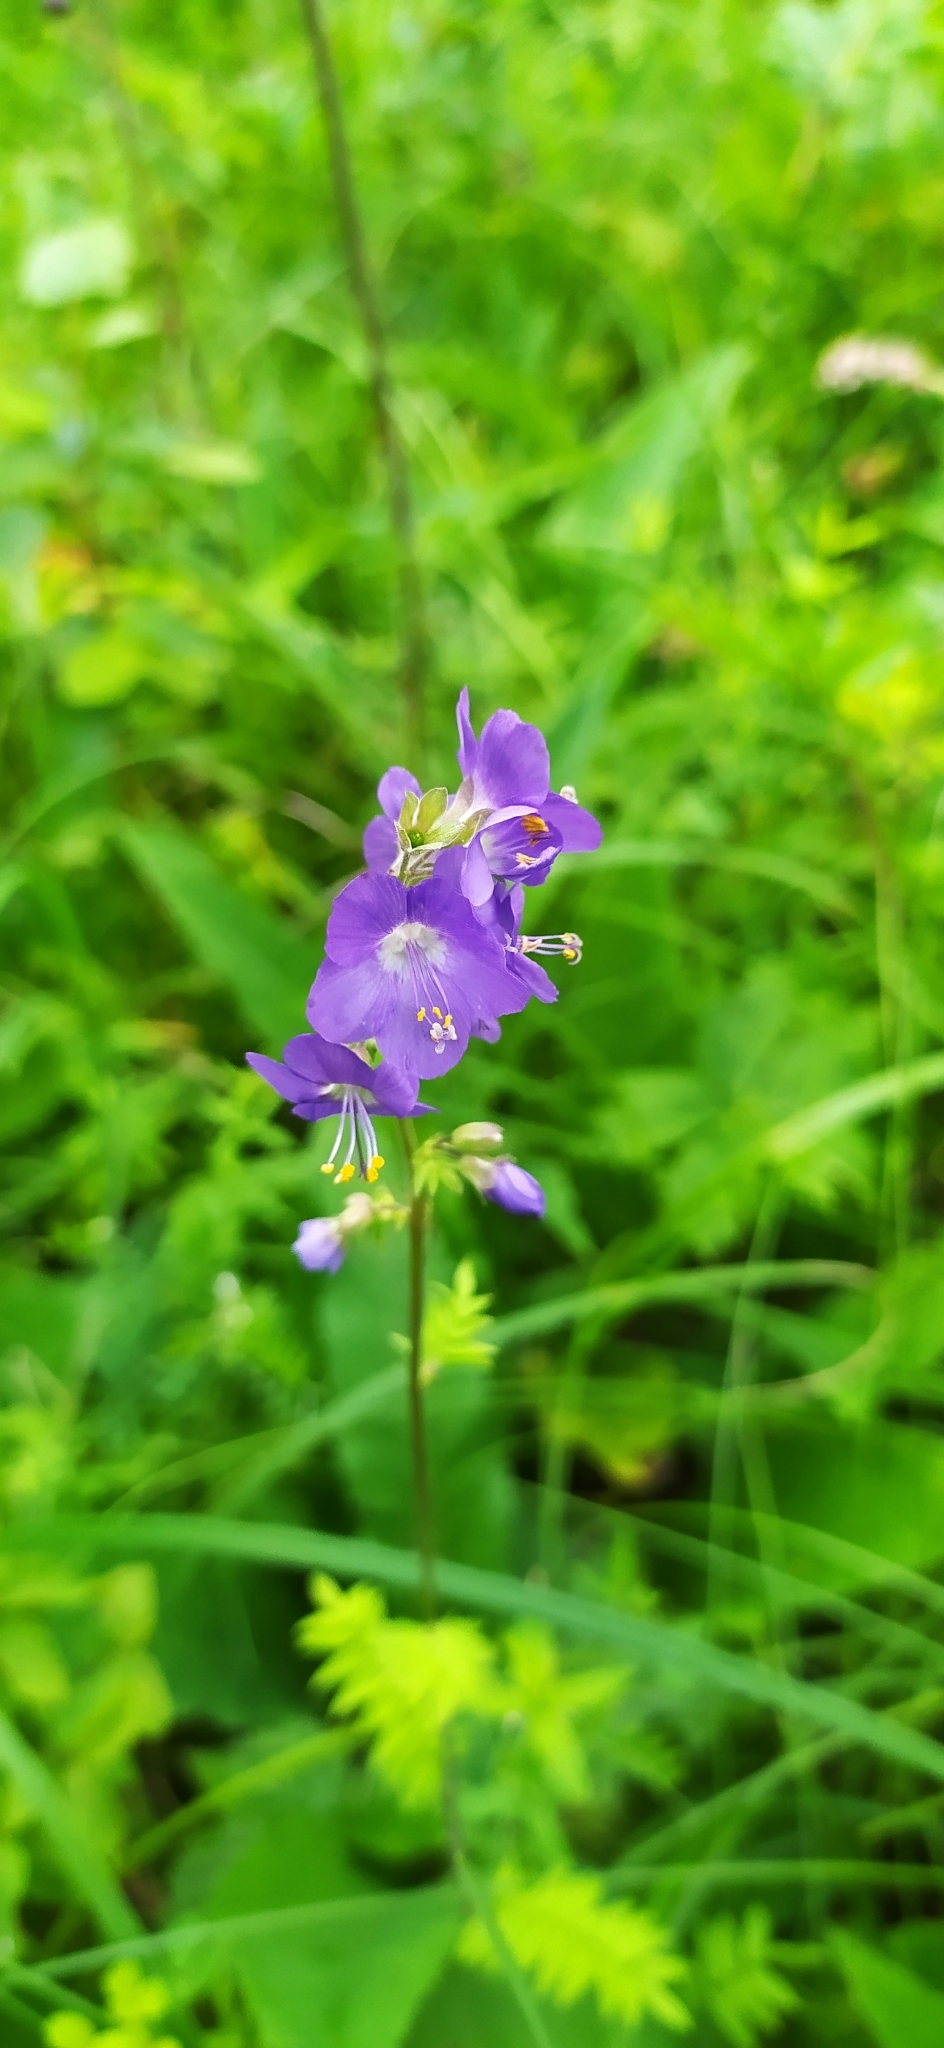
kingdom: Plantae
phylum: Tracheophyta
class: Magnoliopsida
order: Ericales
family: Polemoniaceae
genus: Polemonium
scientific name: Polemonium caeruleum
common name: Jacob's-ladder
